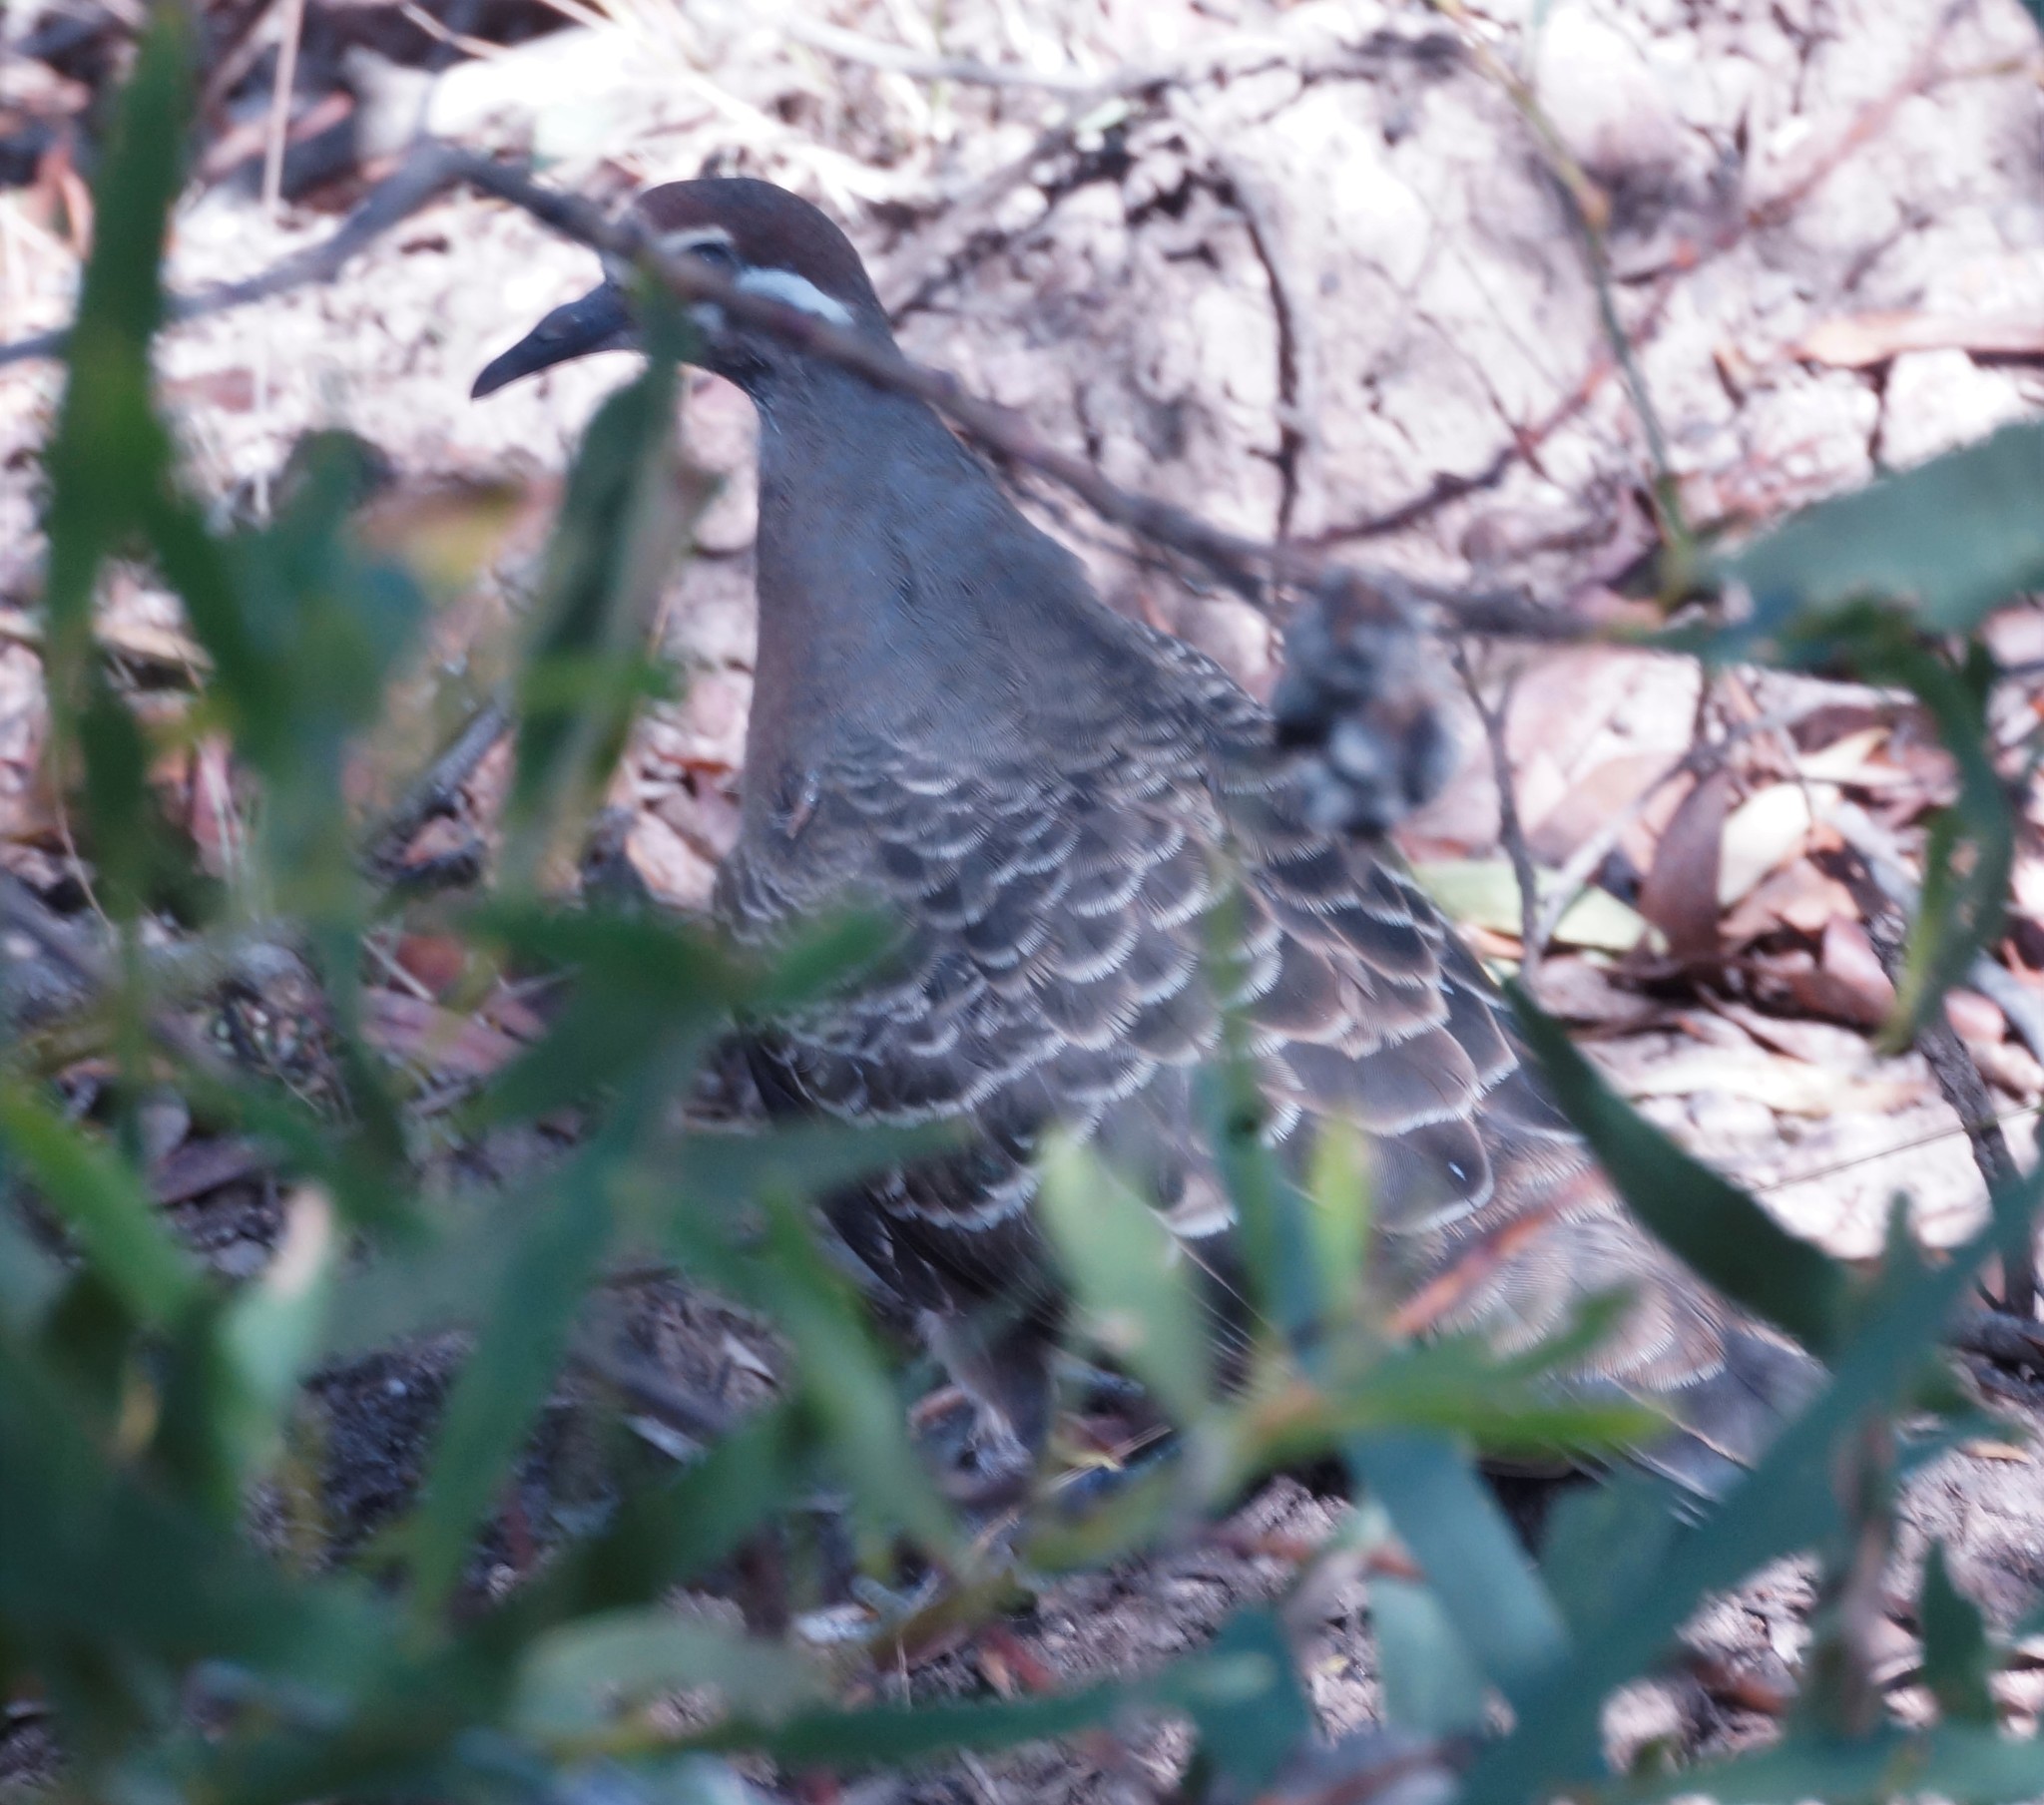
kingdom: Animalia
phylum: Chordata
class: Aves
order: Columbiformes
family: Columbidae
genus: Phaps
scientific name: Phaps chalcoptera
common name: Common bronzewing
